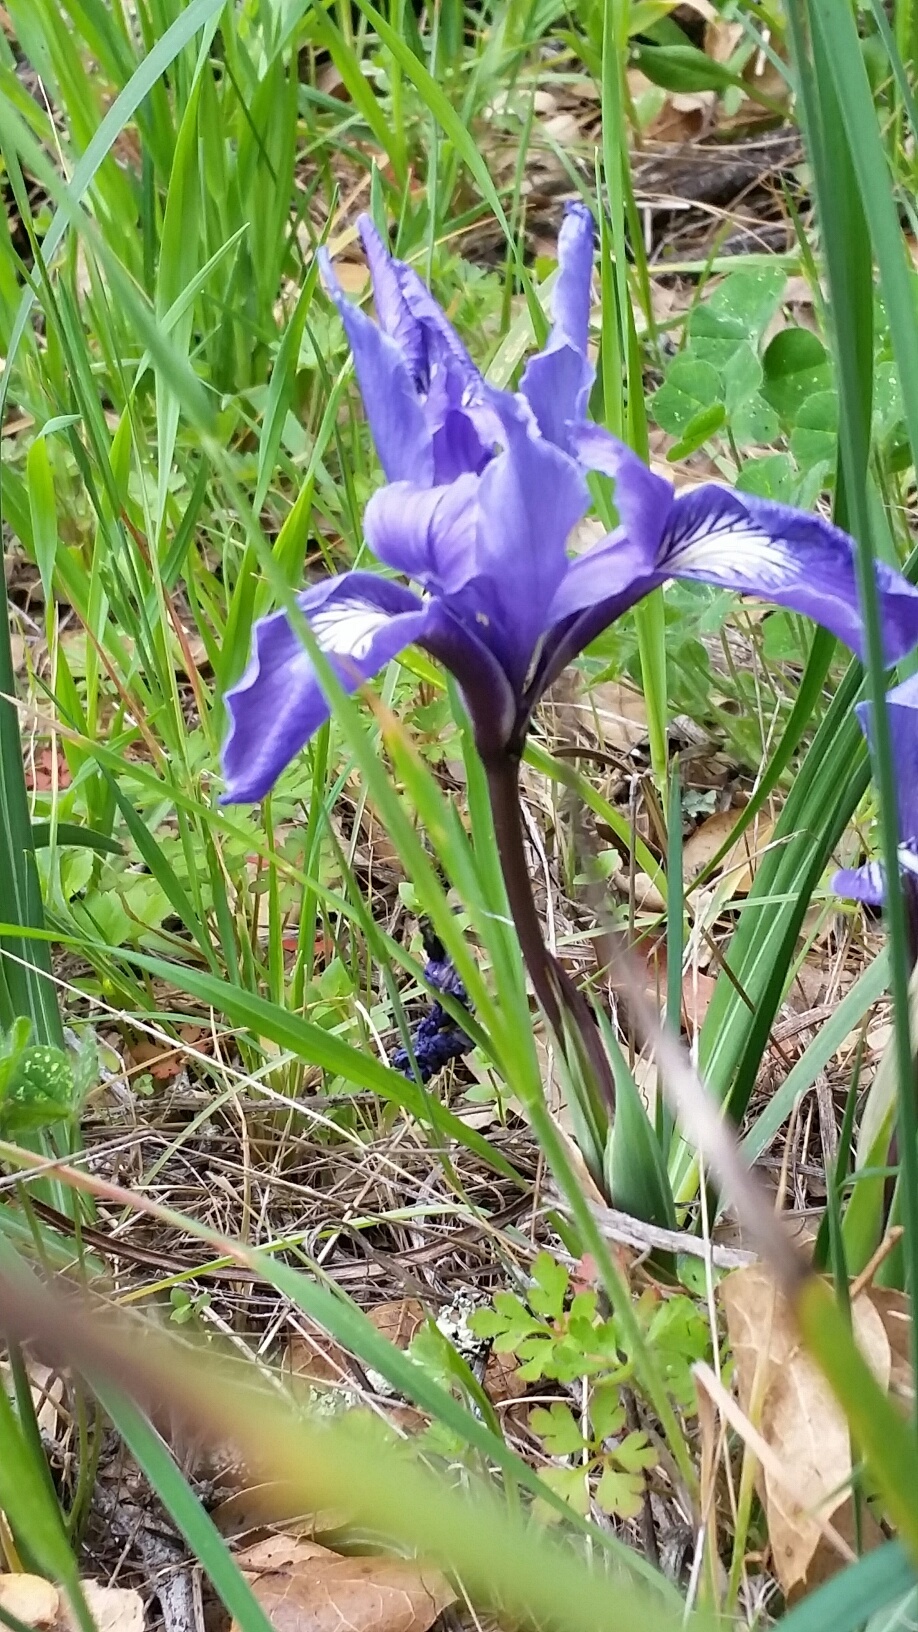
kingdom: Plantae
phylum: Tracheophyta
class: Liliopsida
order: Asparagales
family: Iridaceae
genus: Iris
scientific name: Iris macrosiphon
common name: Ground iris
